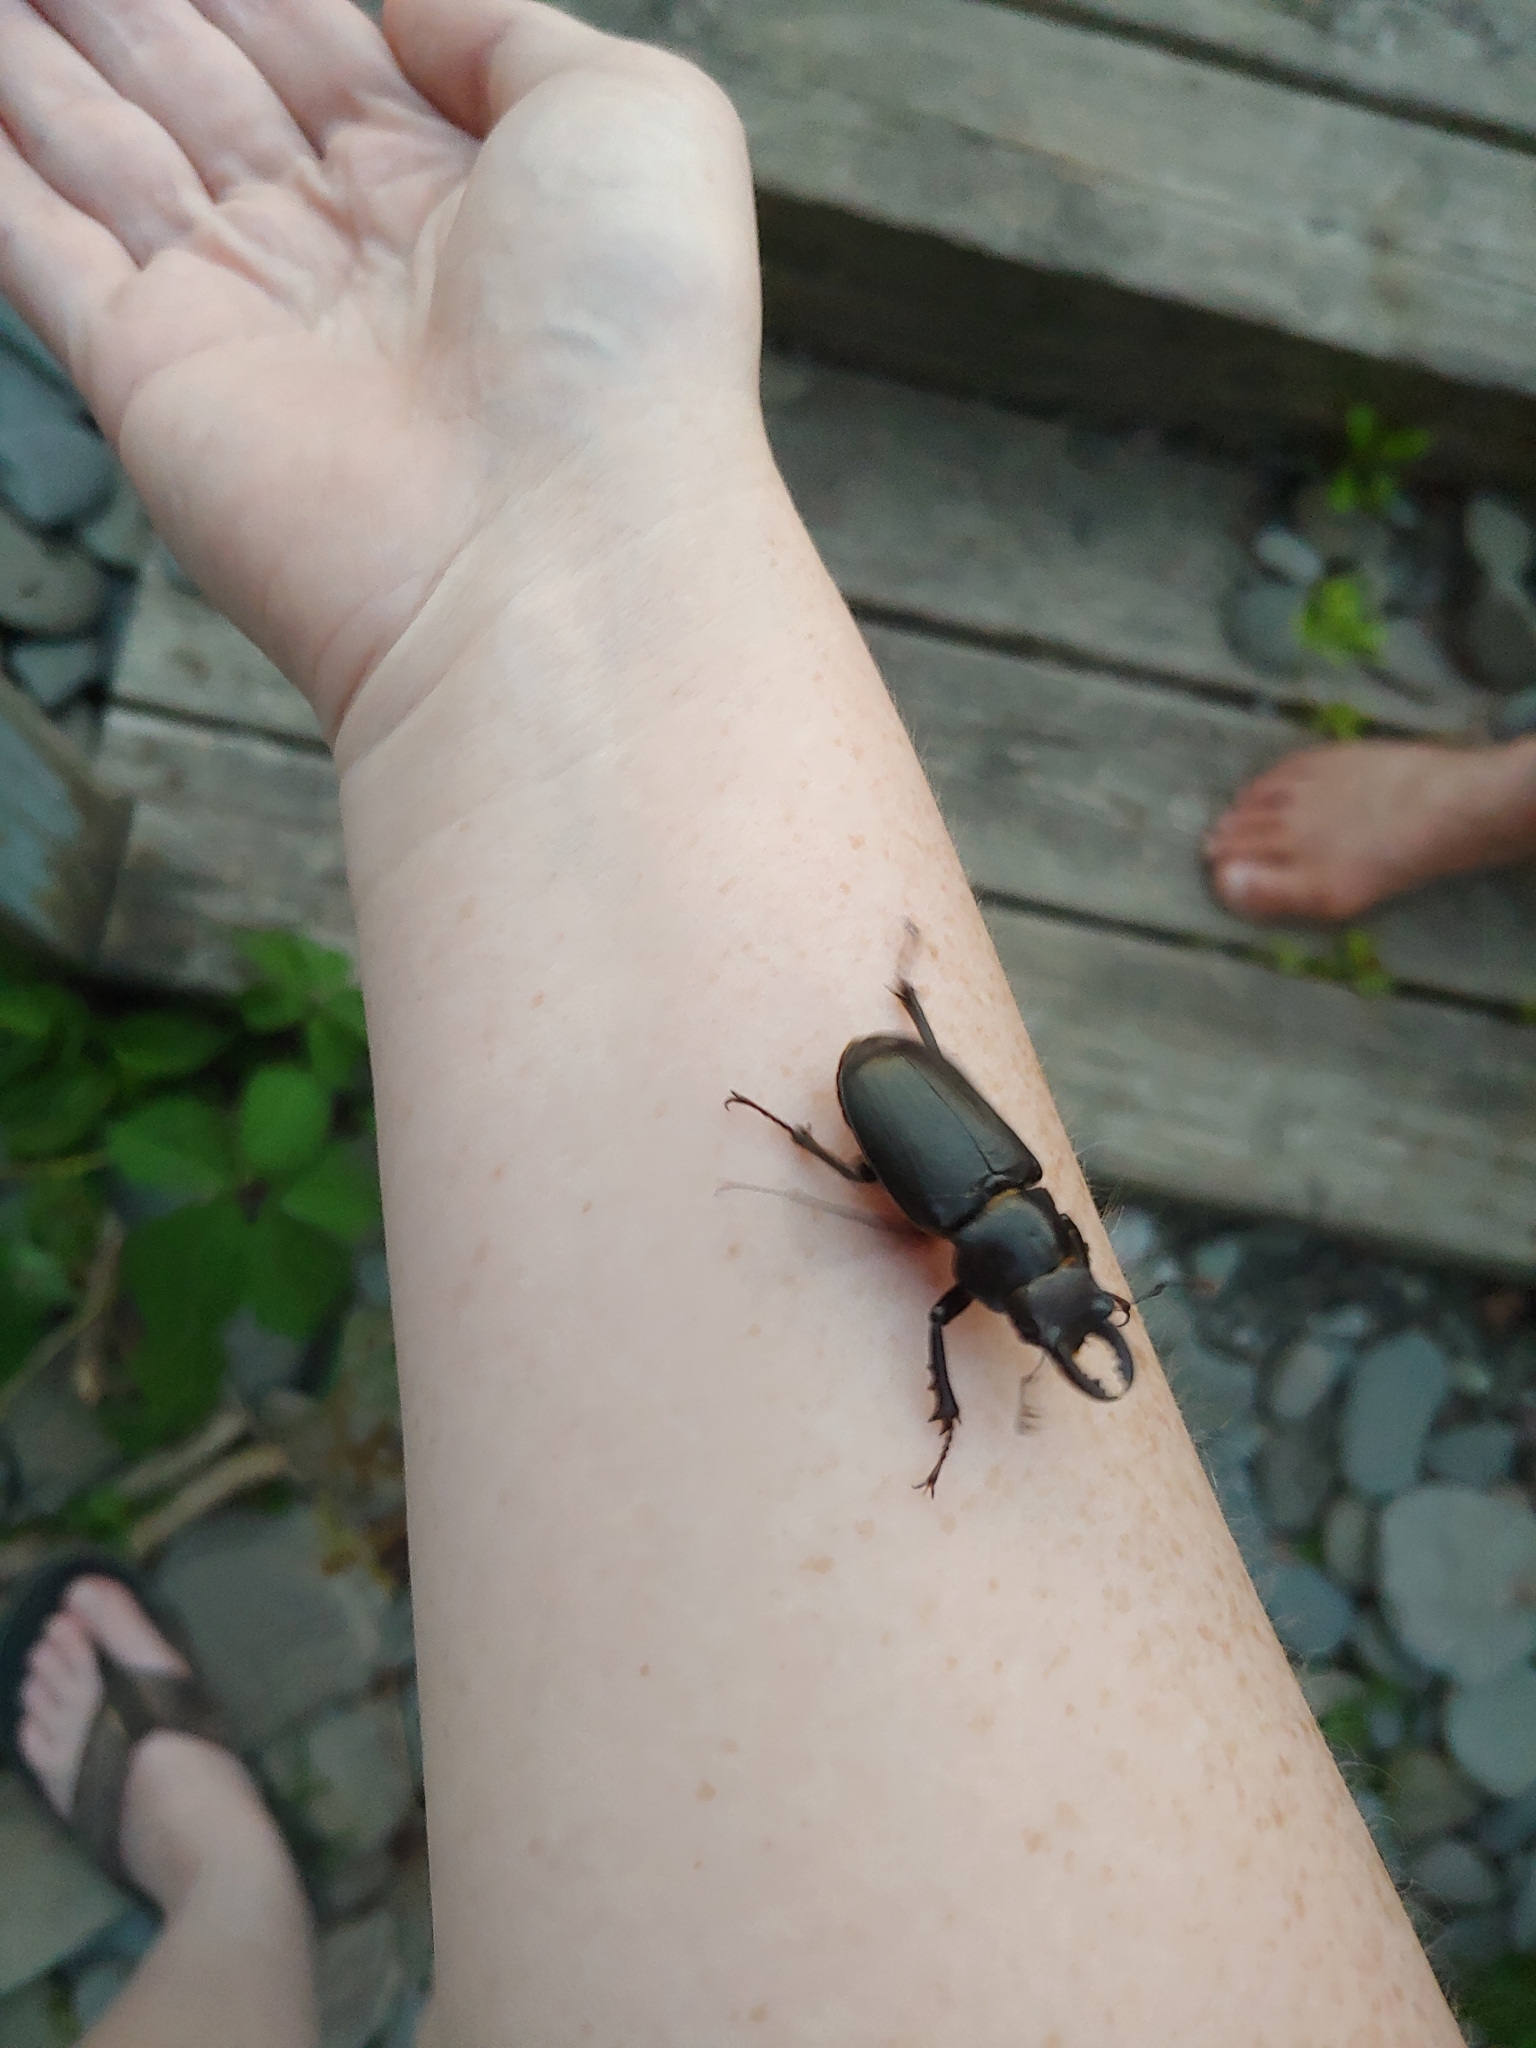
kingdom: Animalia
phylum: Arthropoda
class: Insecta
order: Coleoptera
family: Lucanidae
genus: Lucanus
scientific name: Lucanus placidus
